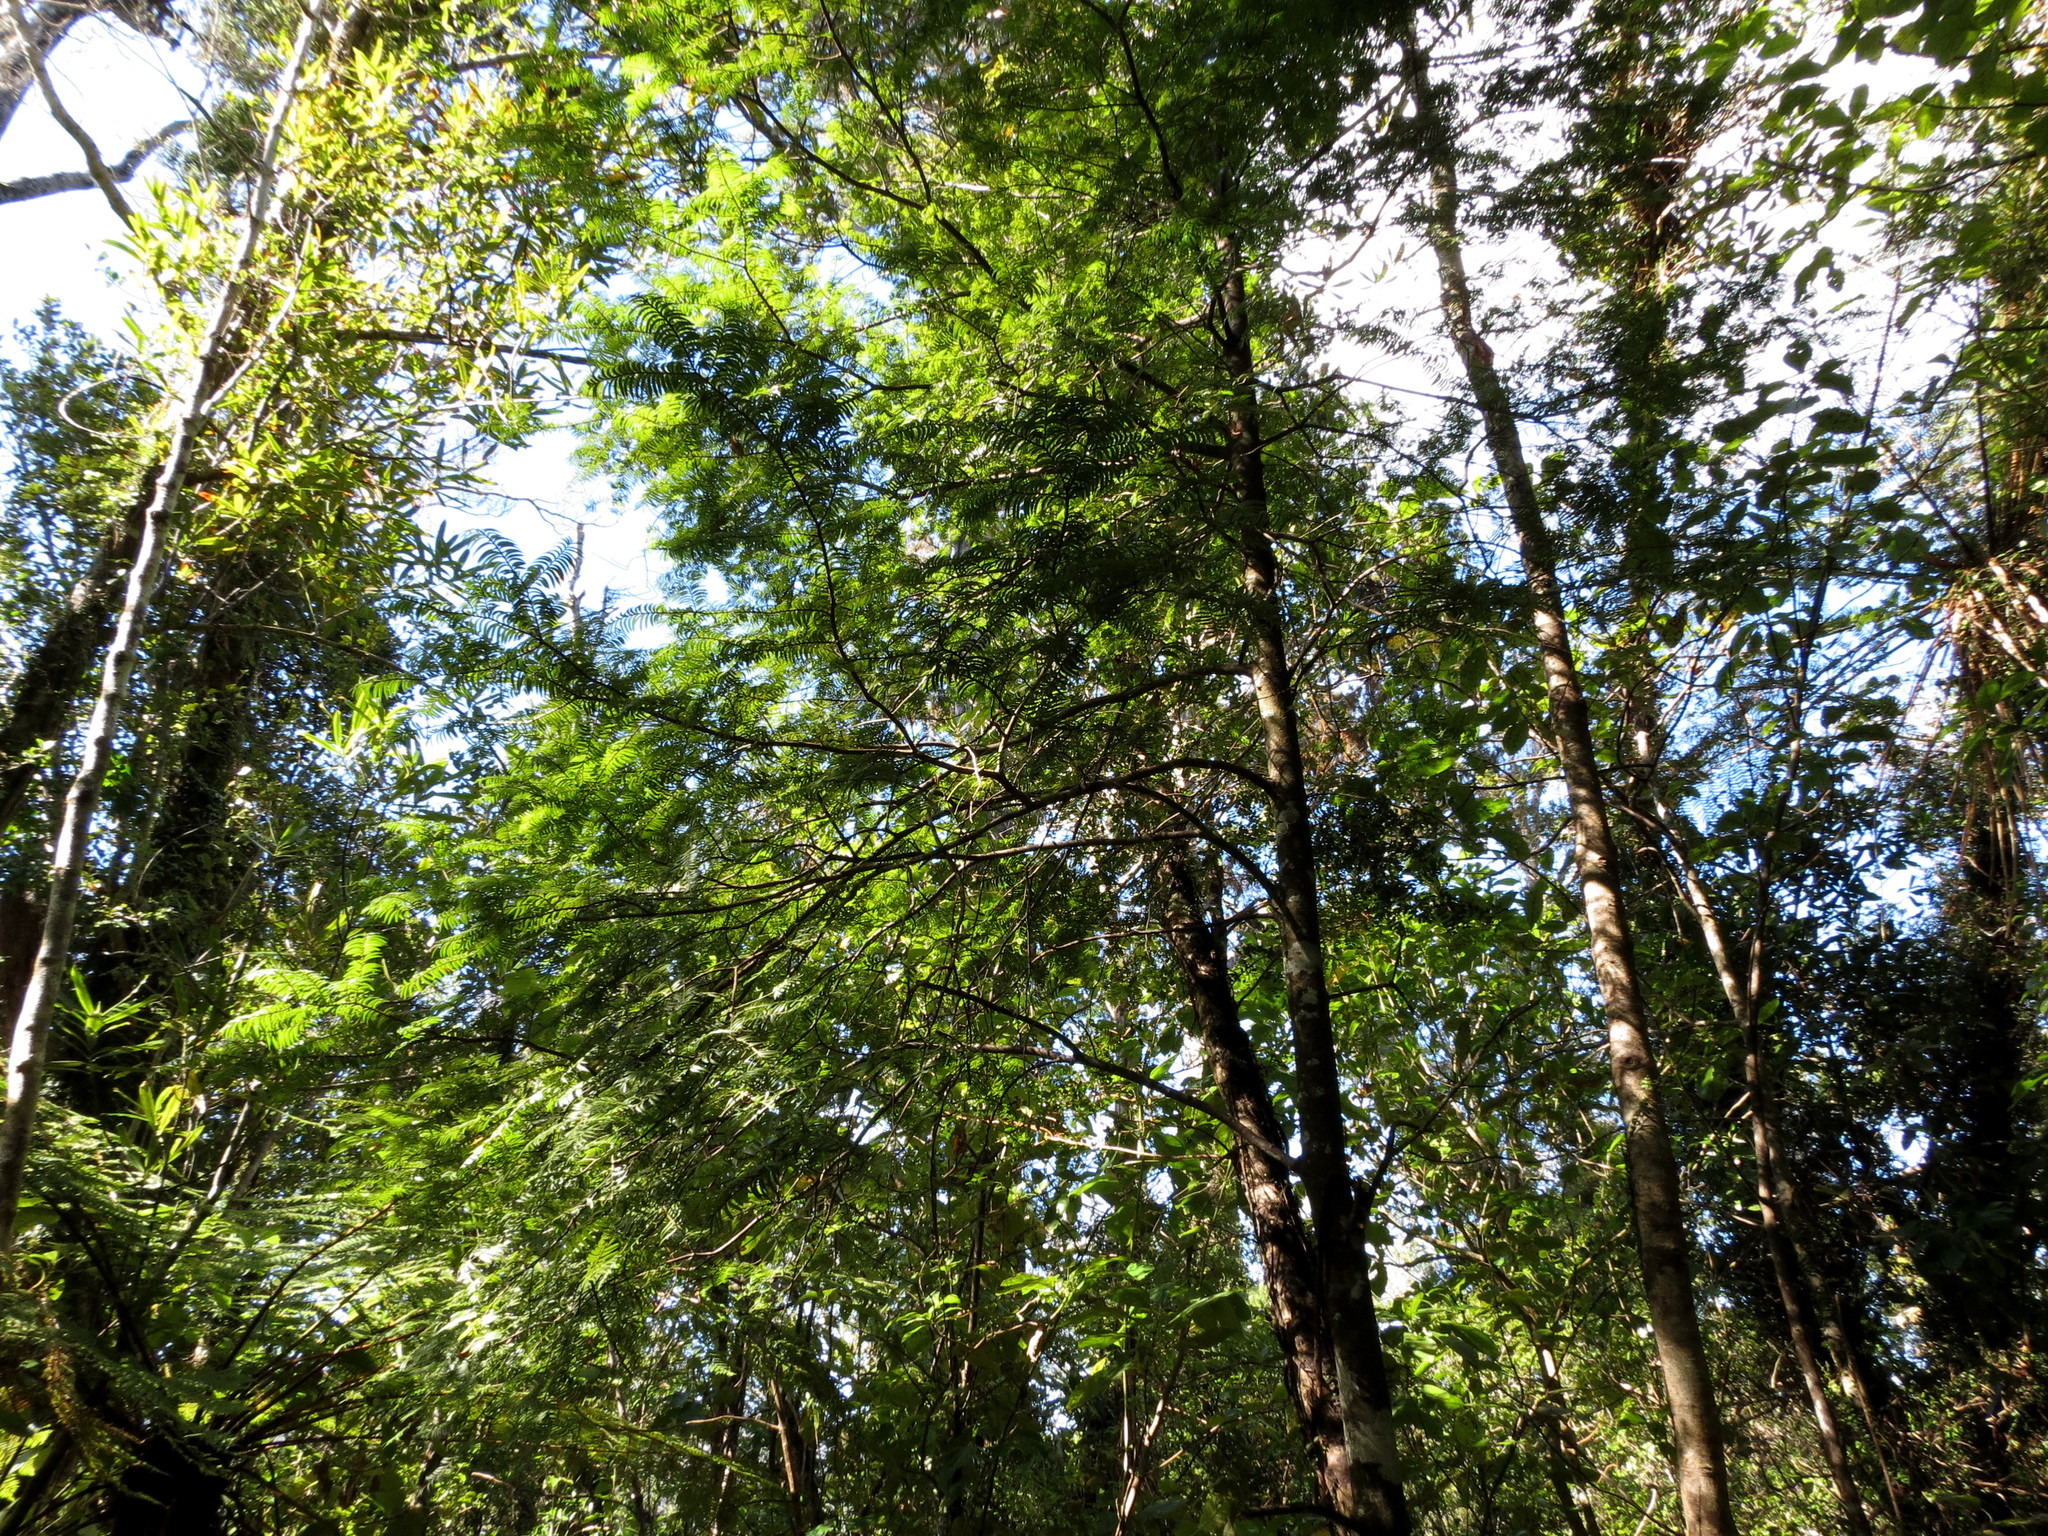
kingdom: Plantae
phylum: Tracheophyta
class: Pinopsida
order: Pinales
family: Podocarpaceae
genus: Prumnopitys
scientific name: Prumnopitys ferruginea
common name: Brown pine
